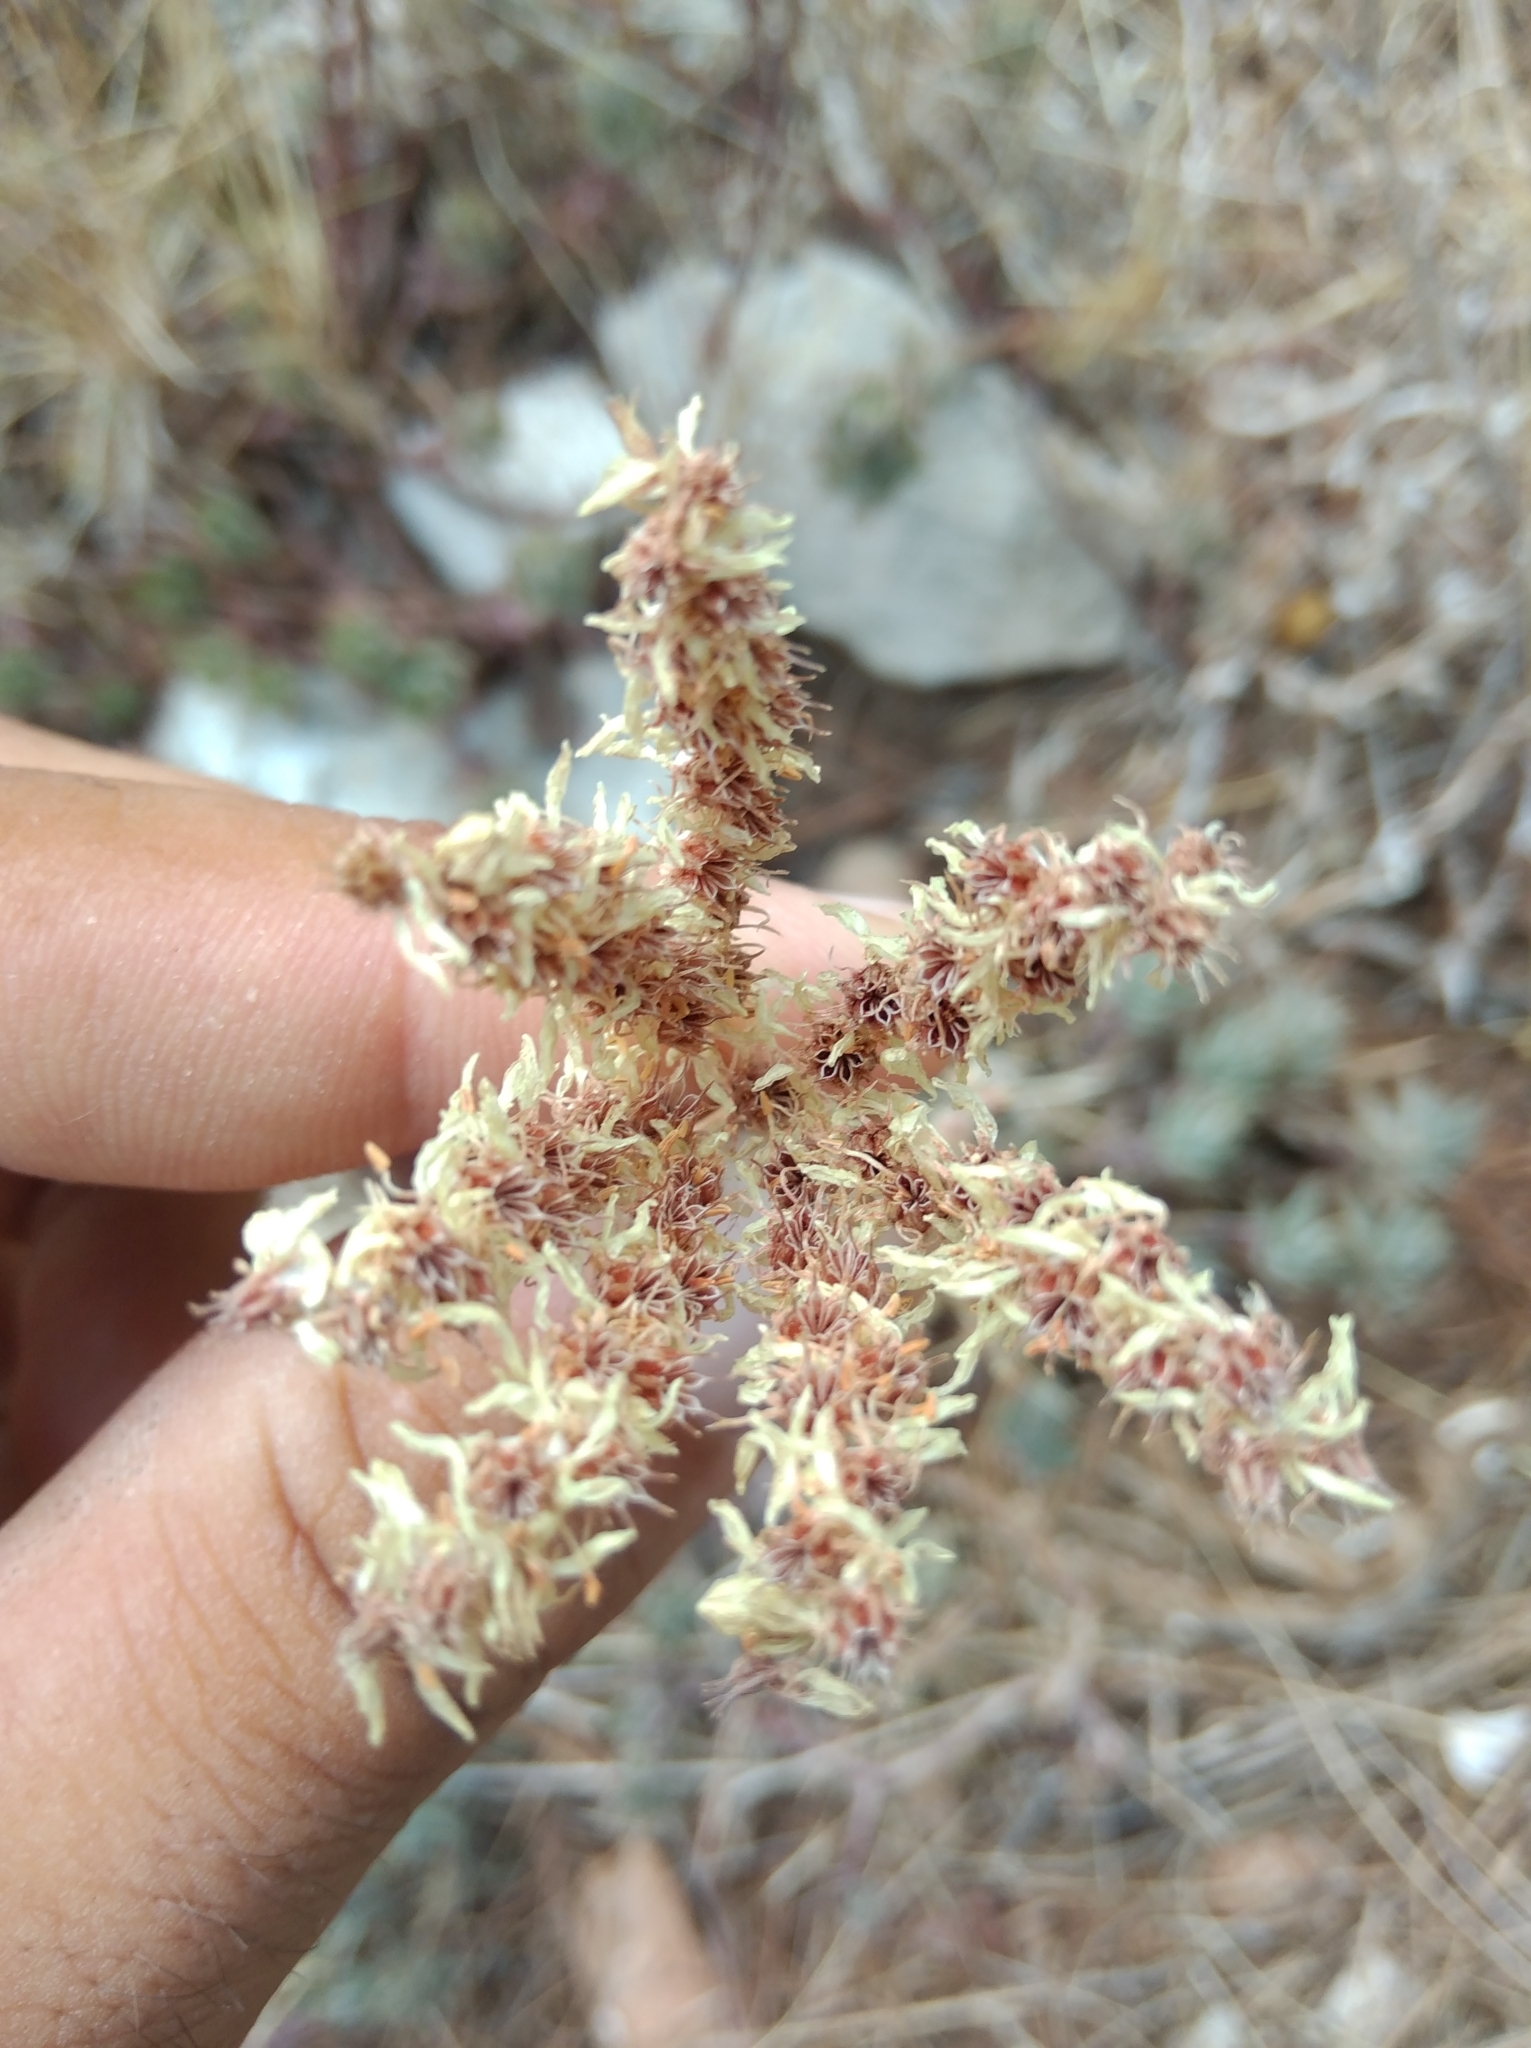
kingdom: Plantae
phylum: Tracheophyta
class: Magnoliopsida
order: Saxifragales
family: Crassulaceae
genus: Petrosedum
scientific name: Petrosedum sediforme
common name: Pale stonecrop
